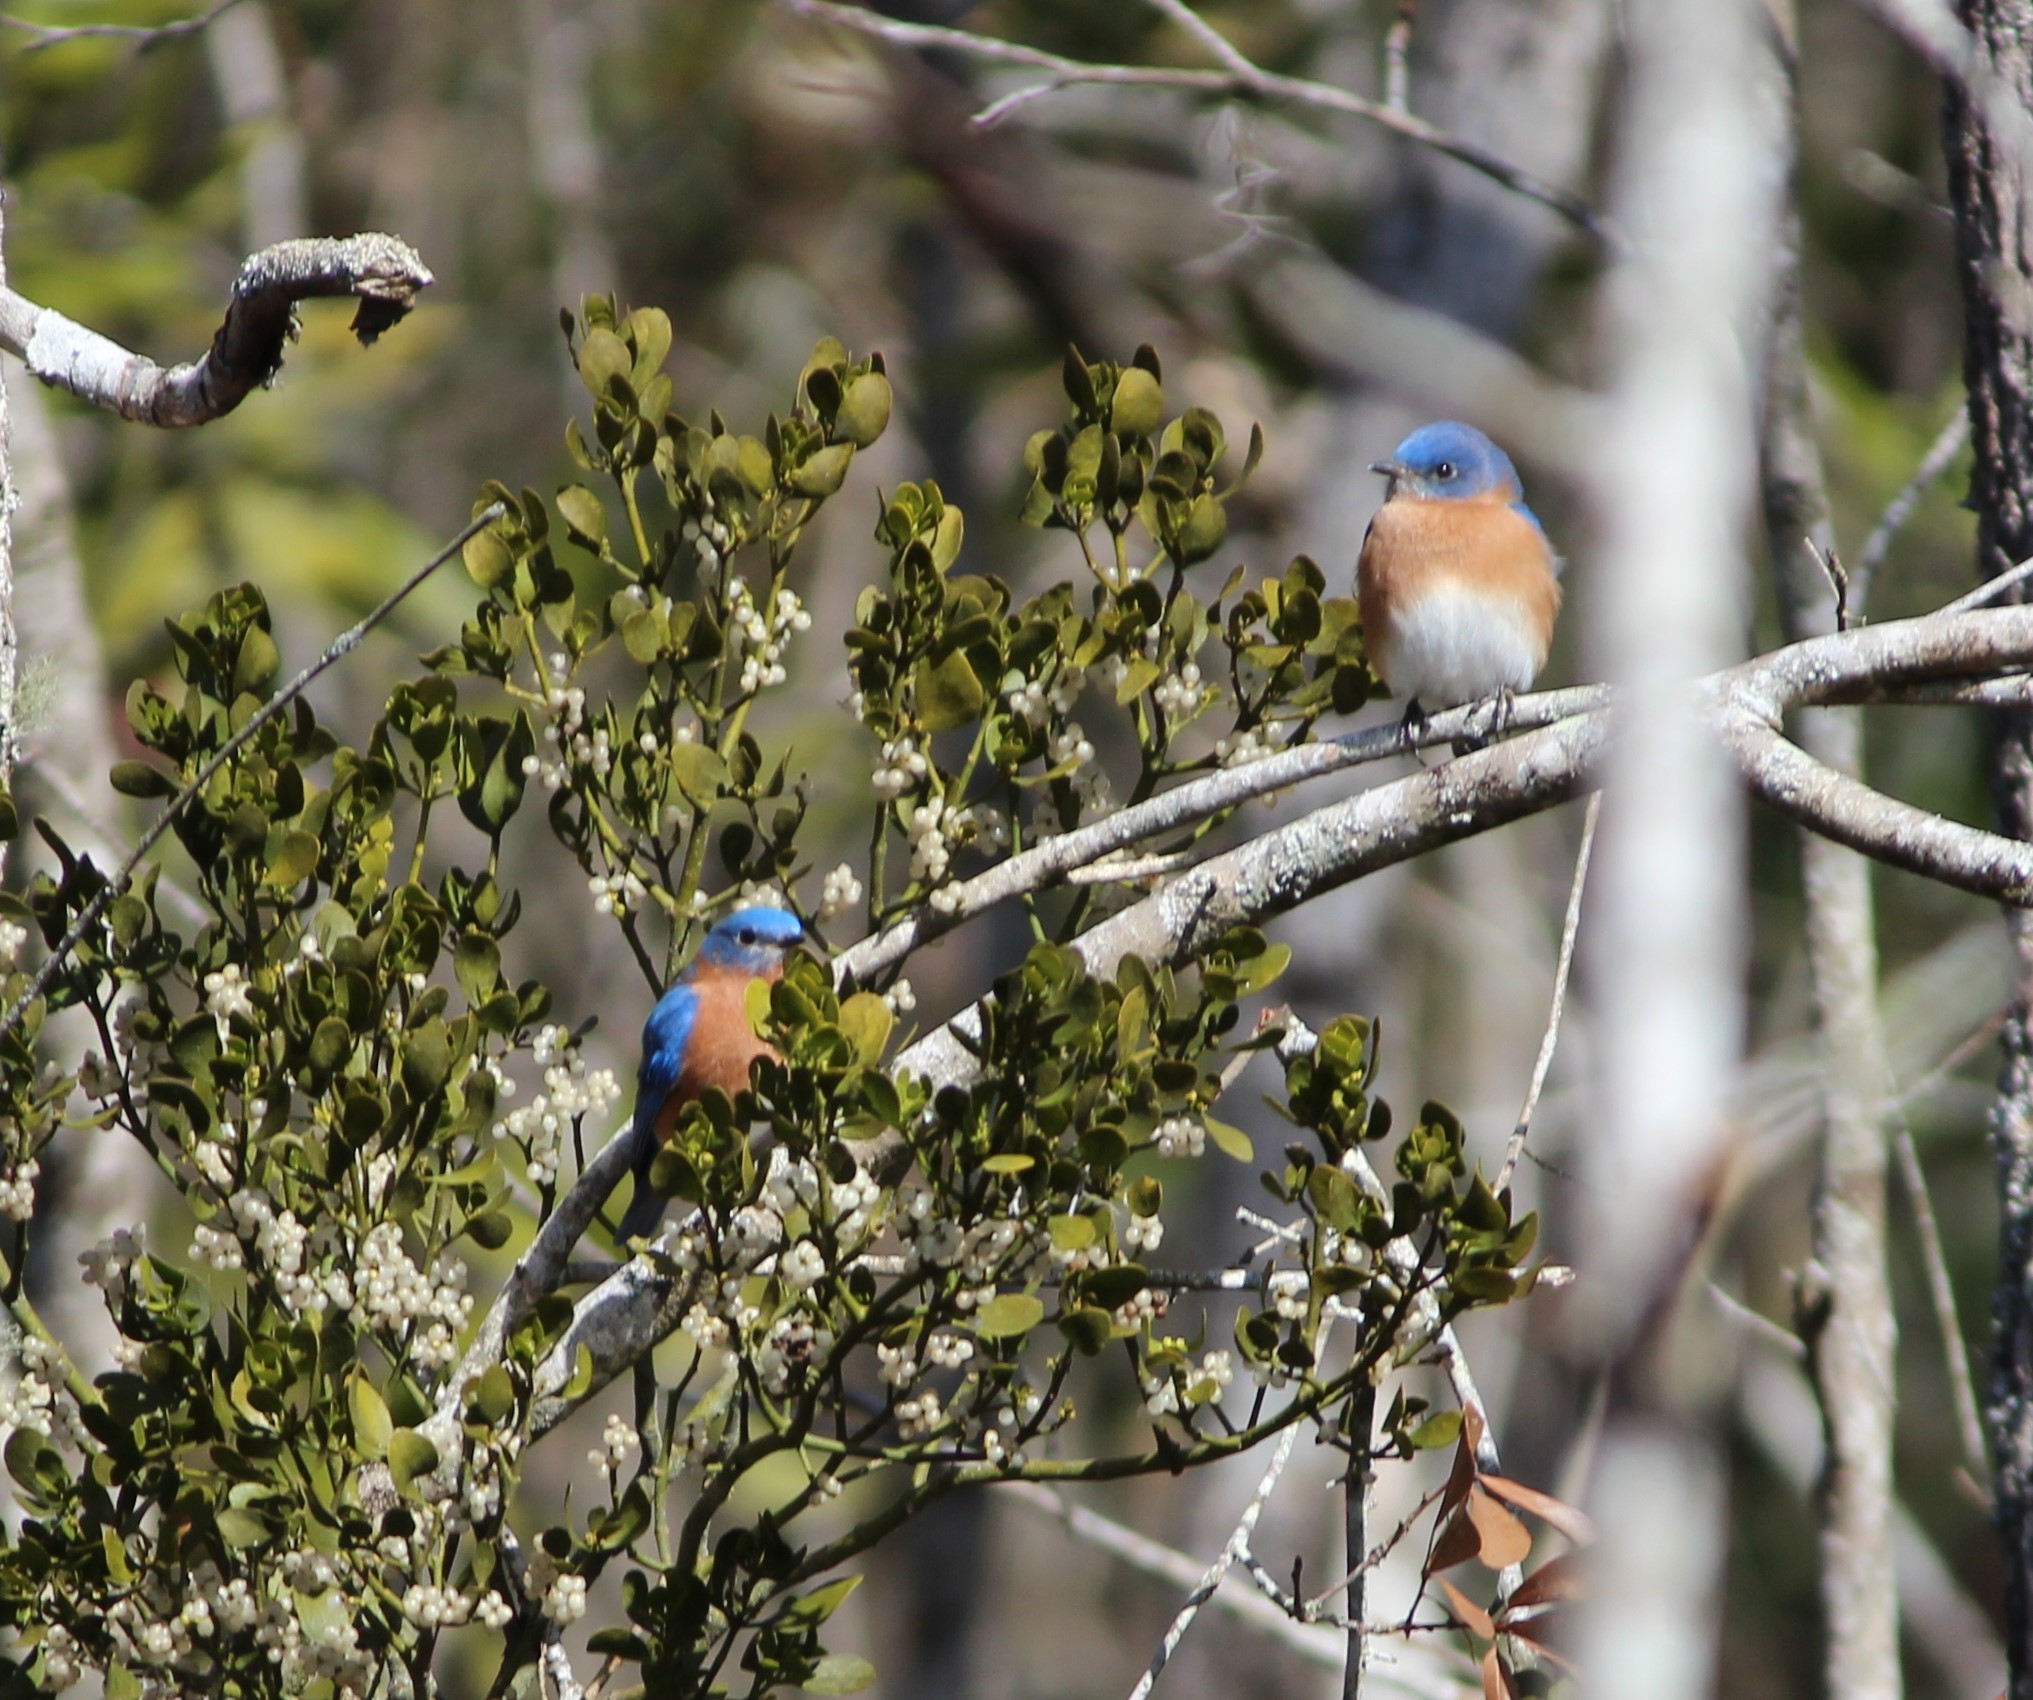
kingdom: Animalia
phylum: Chordata
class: Aves
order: Passeriformes
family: Turdidae
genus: Sialia
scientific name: Sialia sialis
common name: Eastern bluebird
